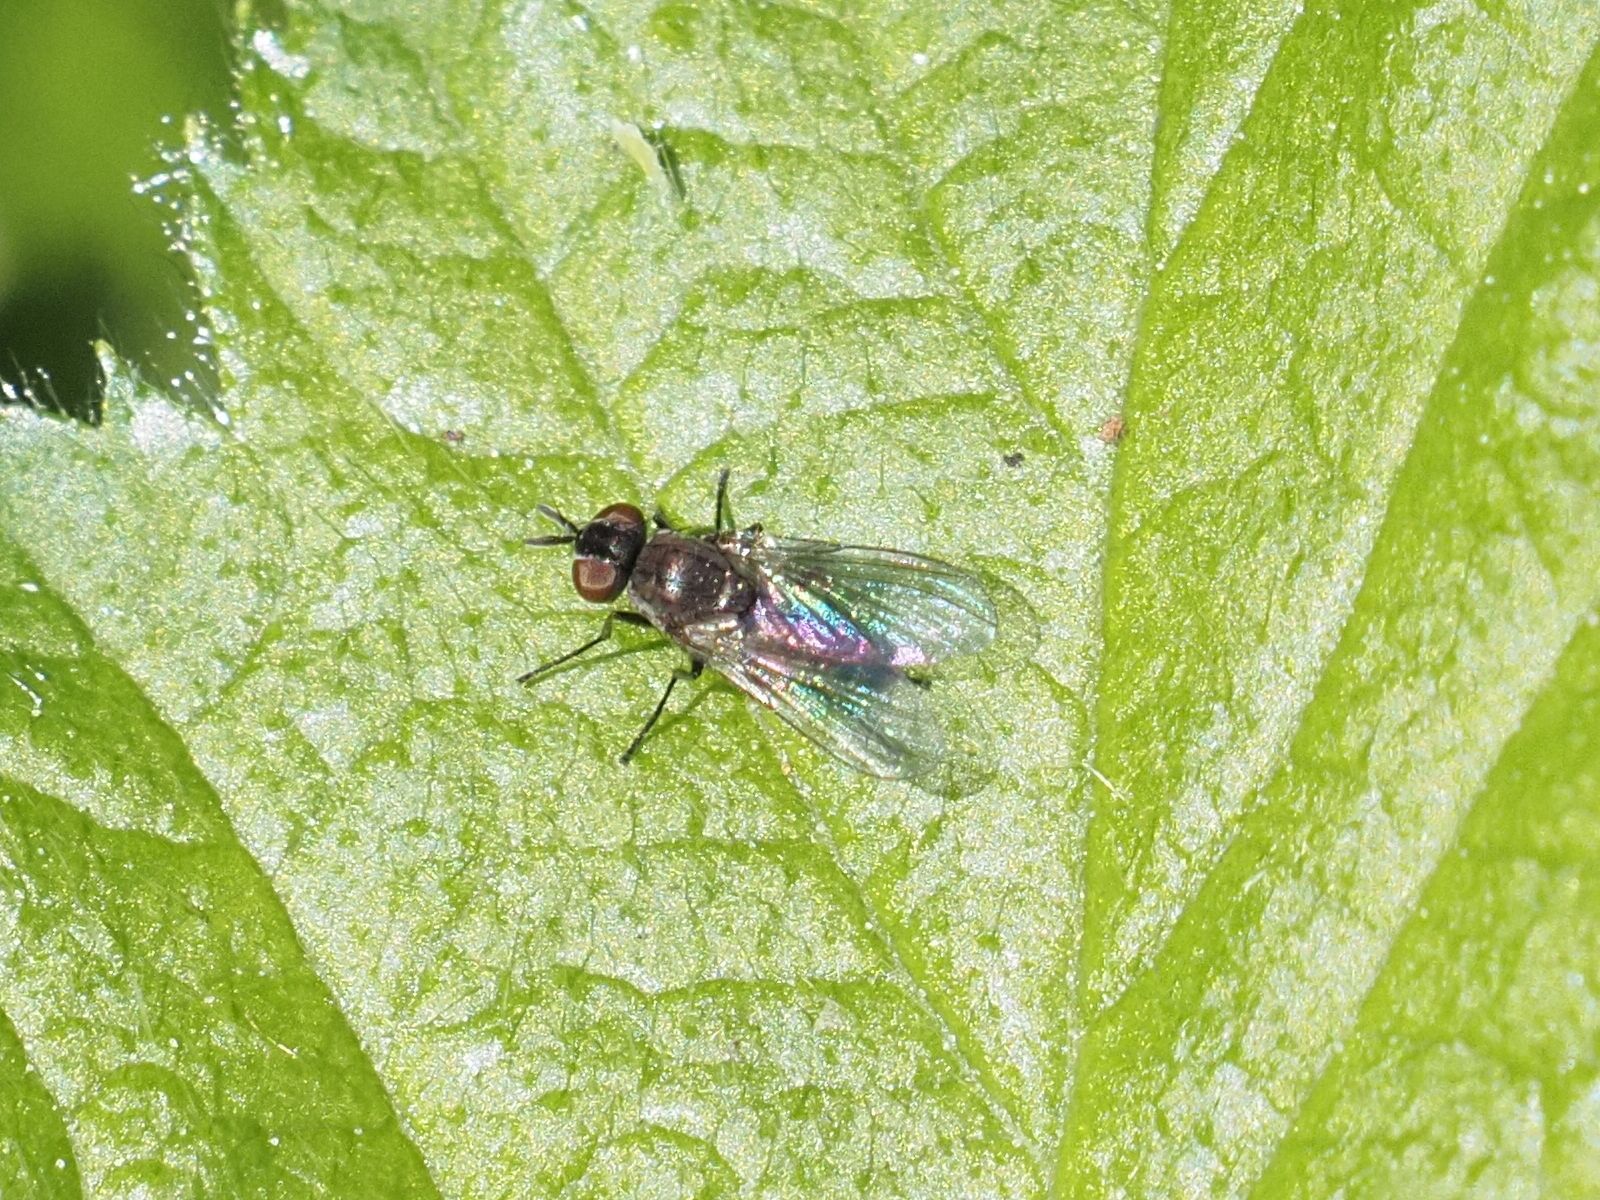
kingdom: Animalia
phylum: Arthropoda
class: Insecta
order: Diptera
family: Muscidae
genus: Coenosia
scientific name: Coenosia agromyzina
